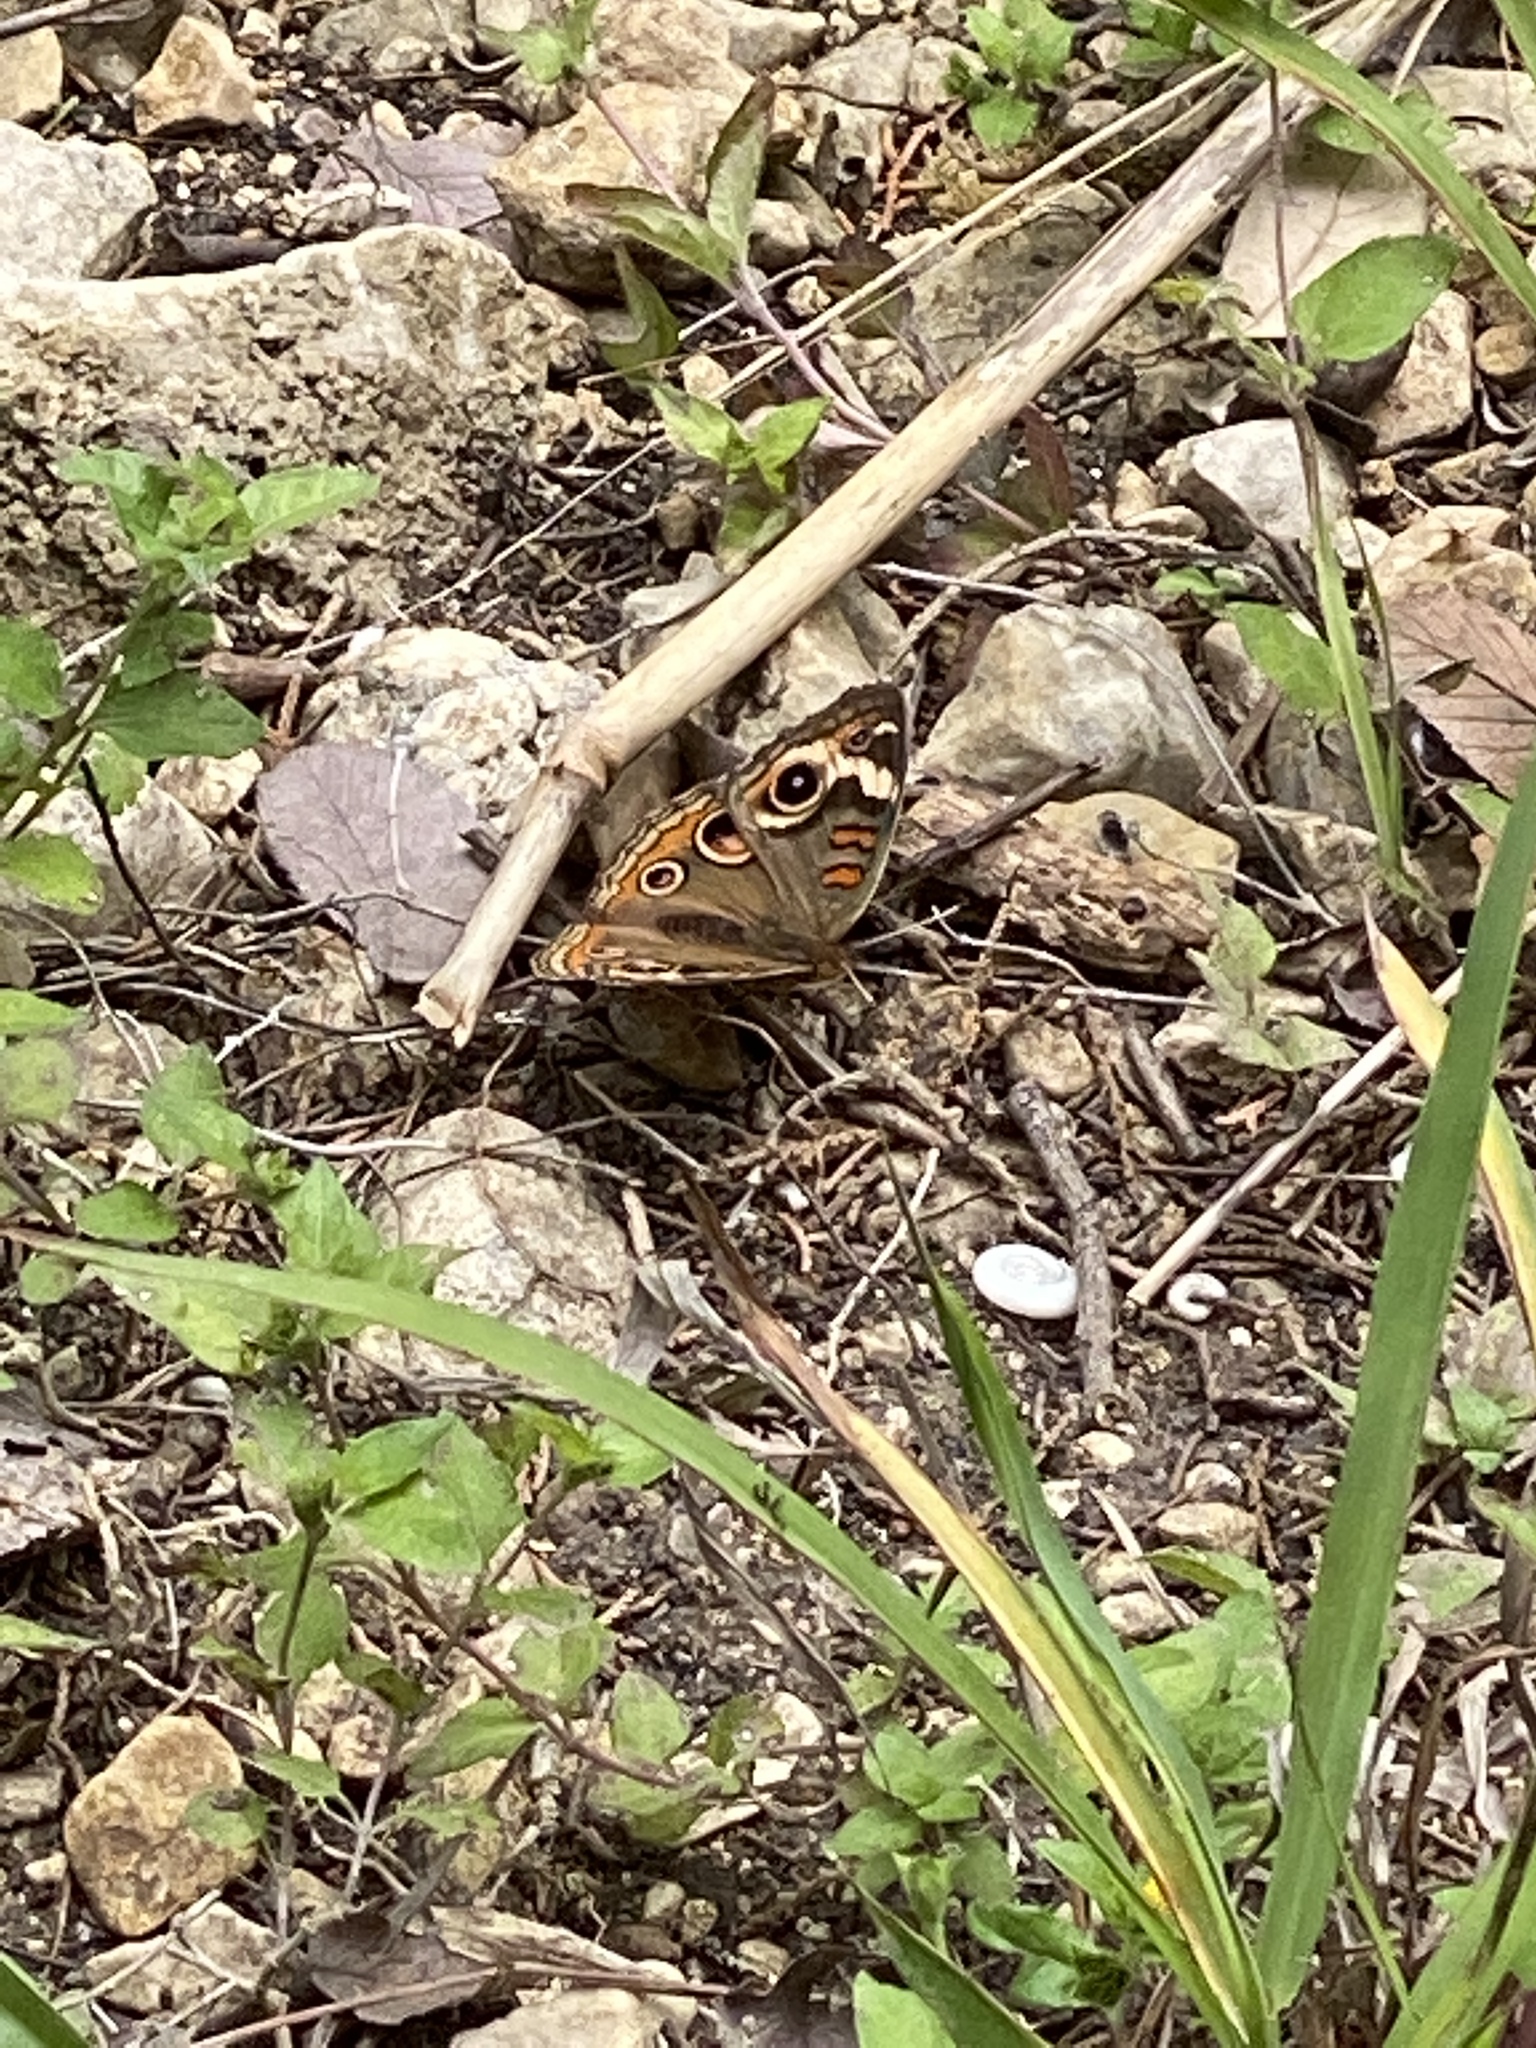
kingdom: Animalia
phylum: Arthropoda
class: Insecta
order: Lepidoptera
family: Nymphalidae
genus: Junonia
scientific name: Junonia coenia
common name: Common buckeye
